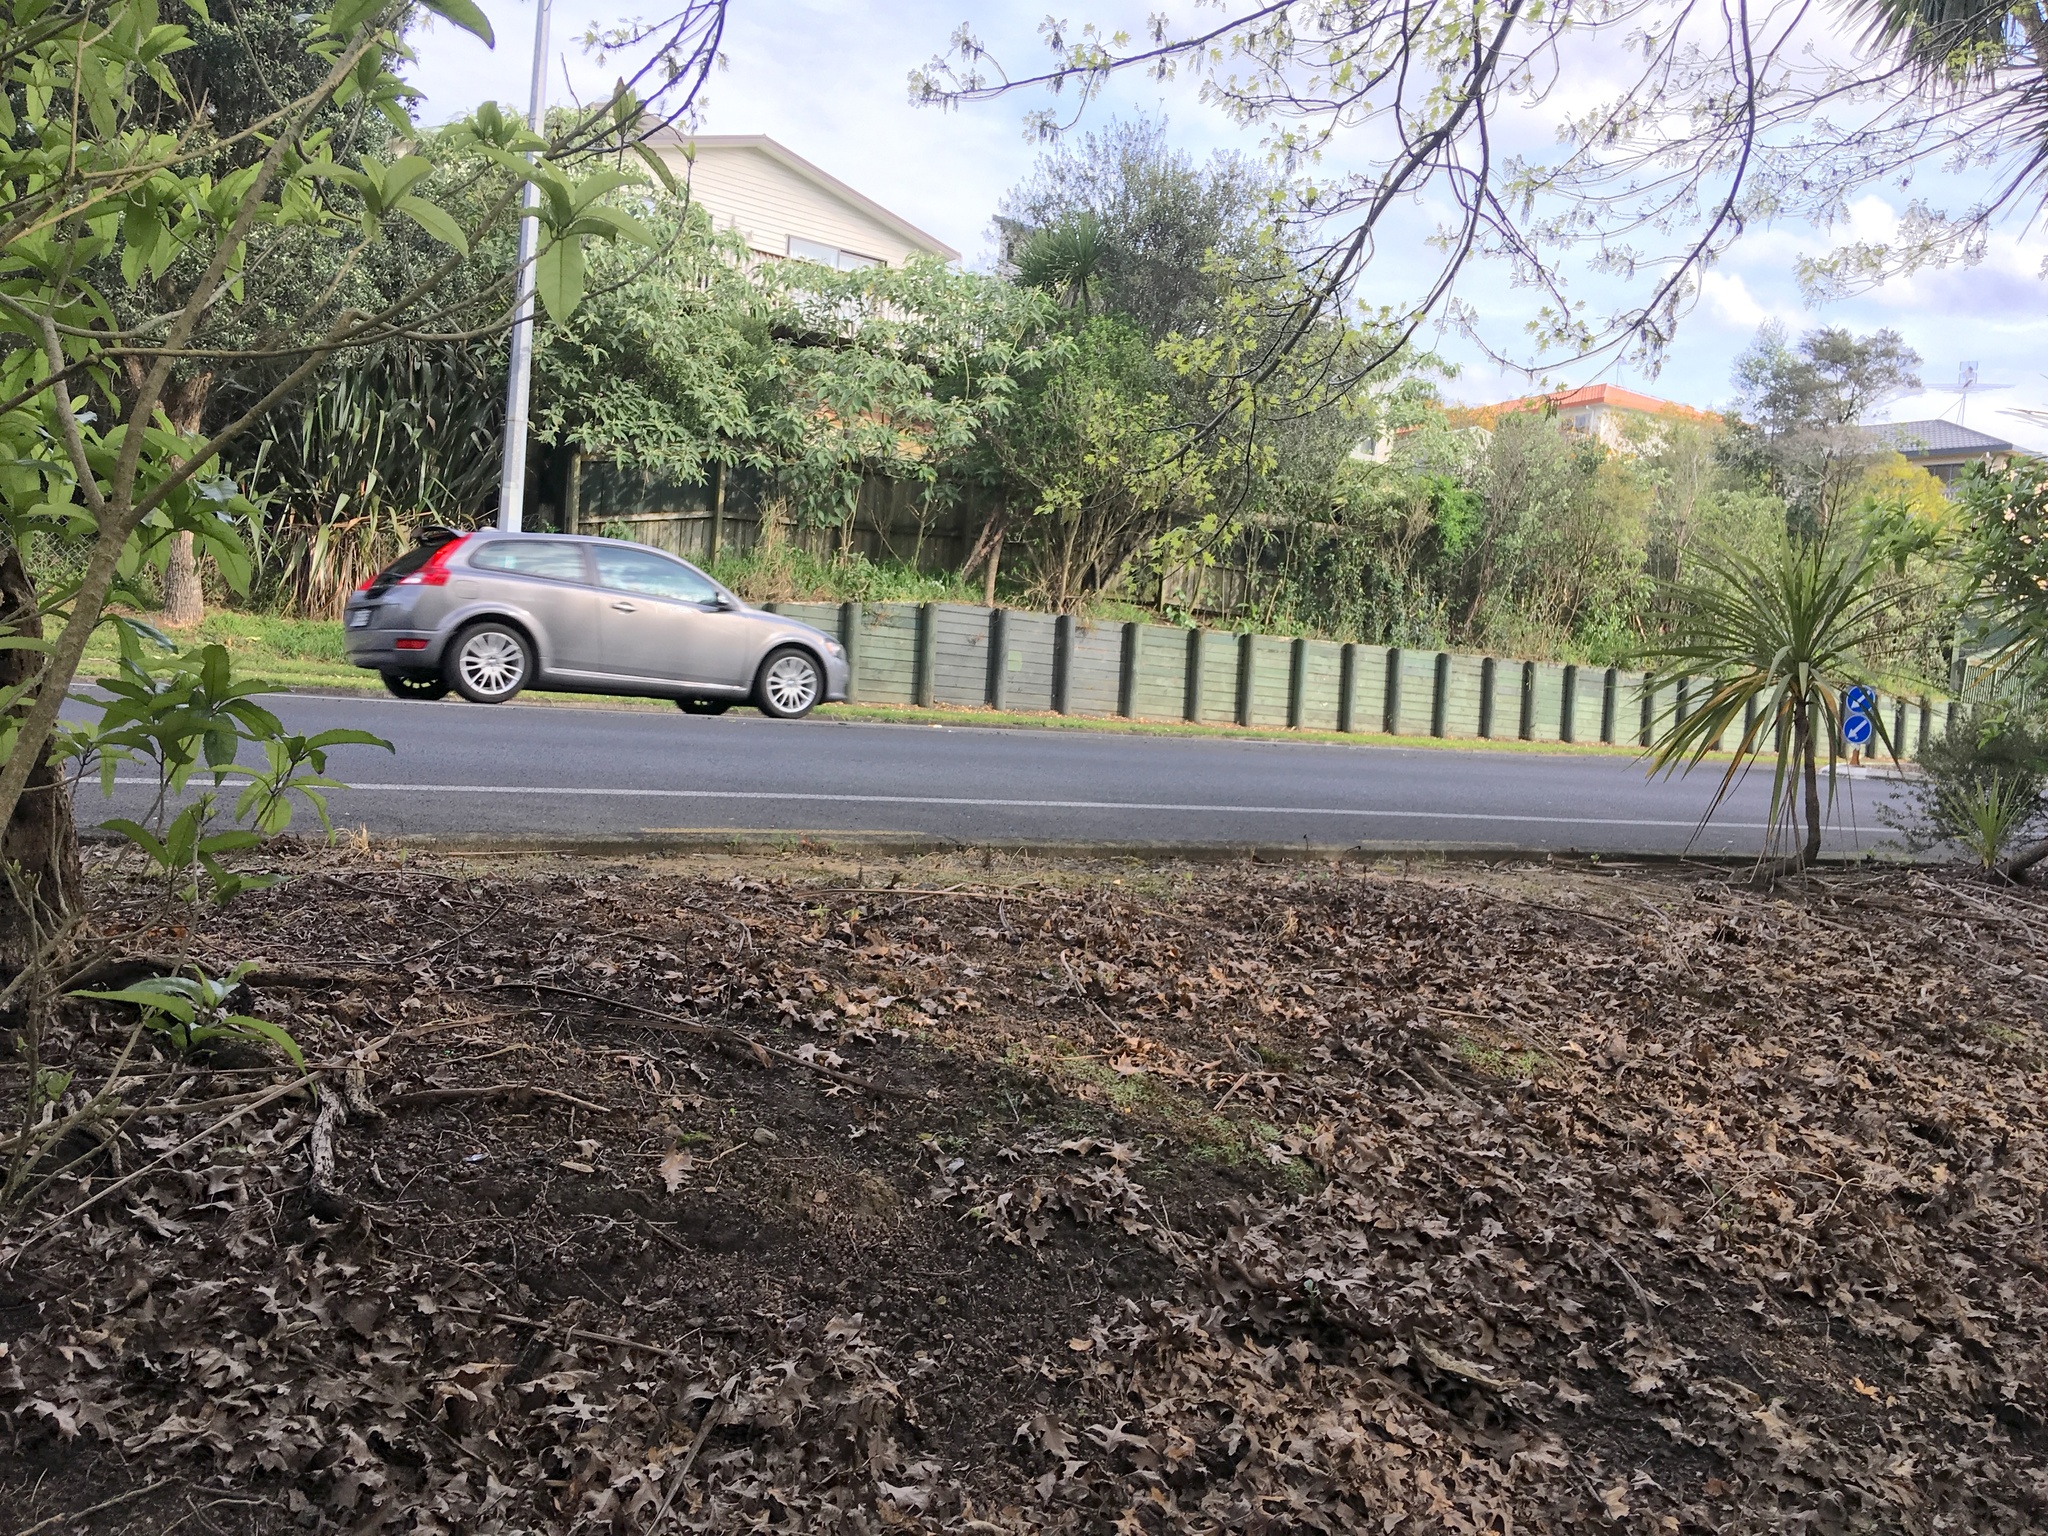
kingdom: Plantae
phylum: Tracheophyta
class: Magnoliopsida
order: Solanales
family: Solanaceae
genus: Solanum
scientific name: Solanum mauritianum
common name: Earleaf nightshade
